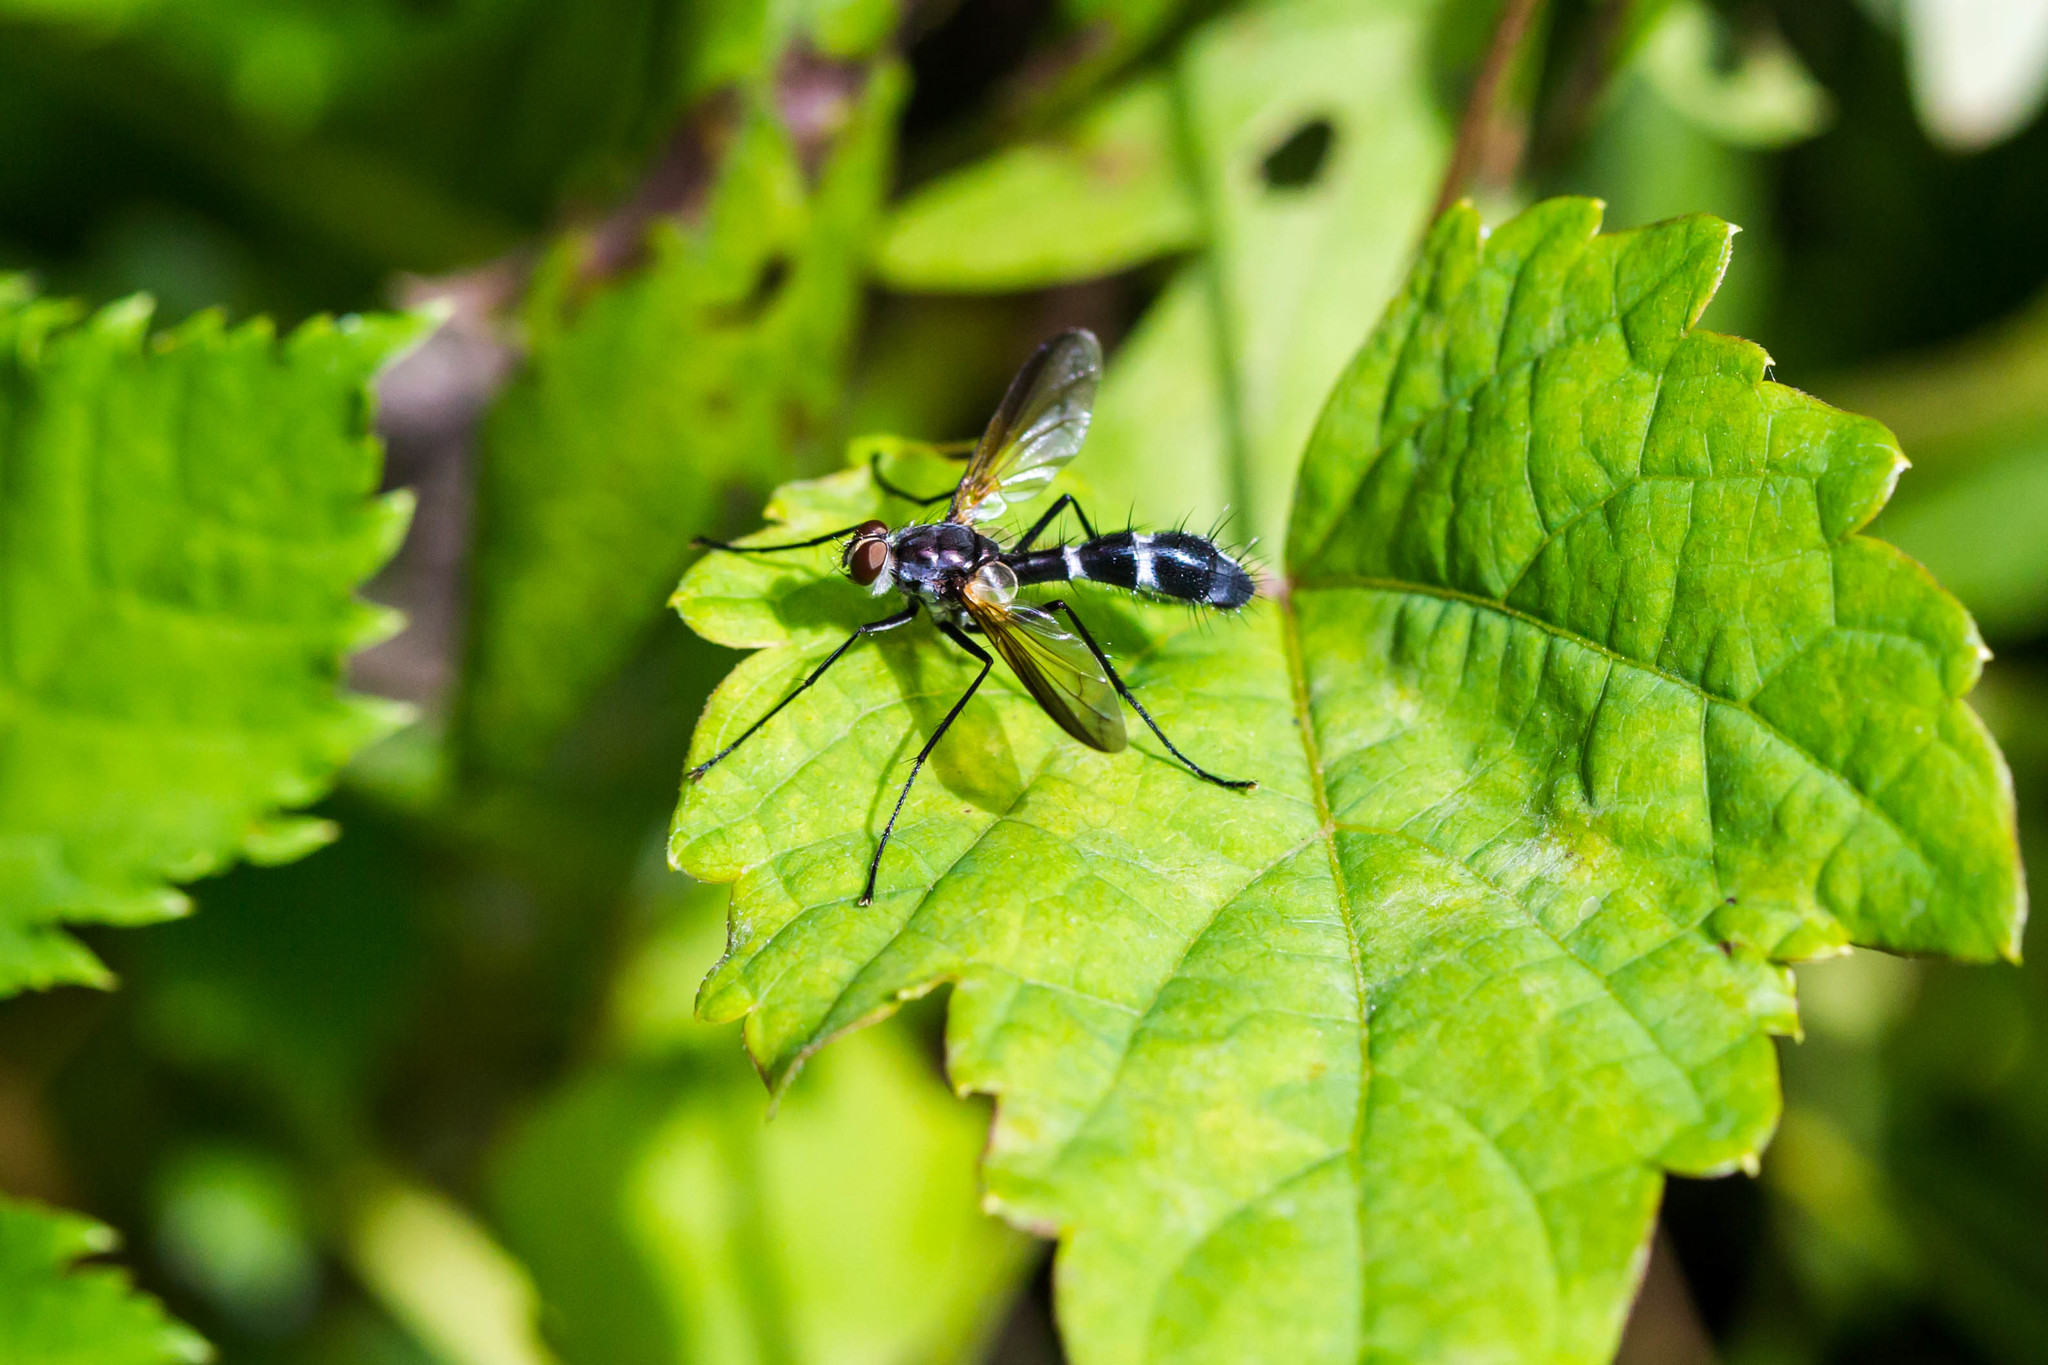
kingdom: Animalia
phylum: Arthropoda
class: Insecta
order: Diptera
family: Tachinidae
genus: Cordyligaster
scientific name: Cordyligaster septentrionalis
